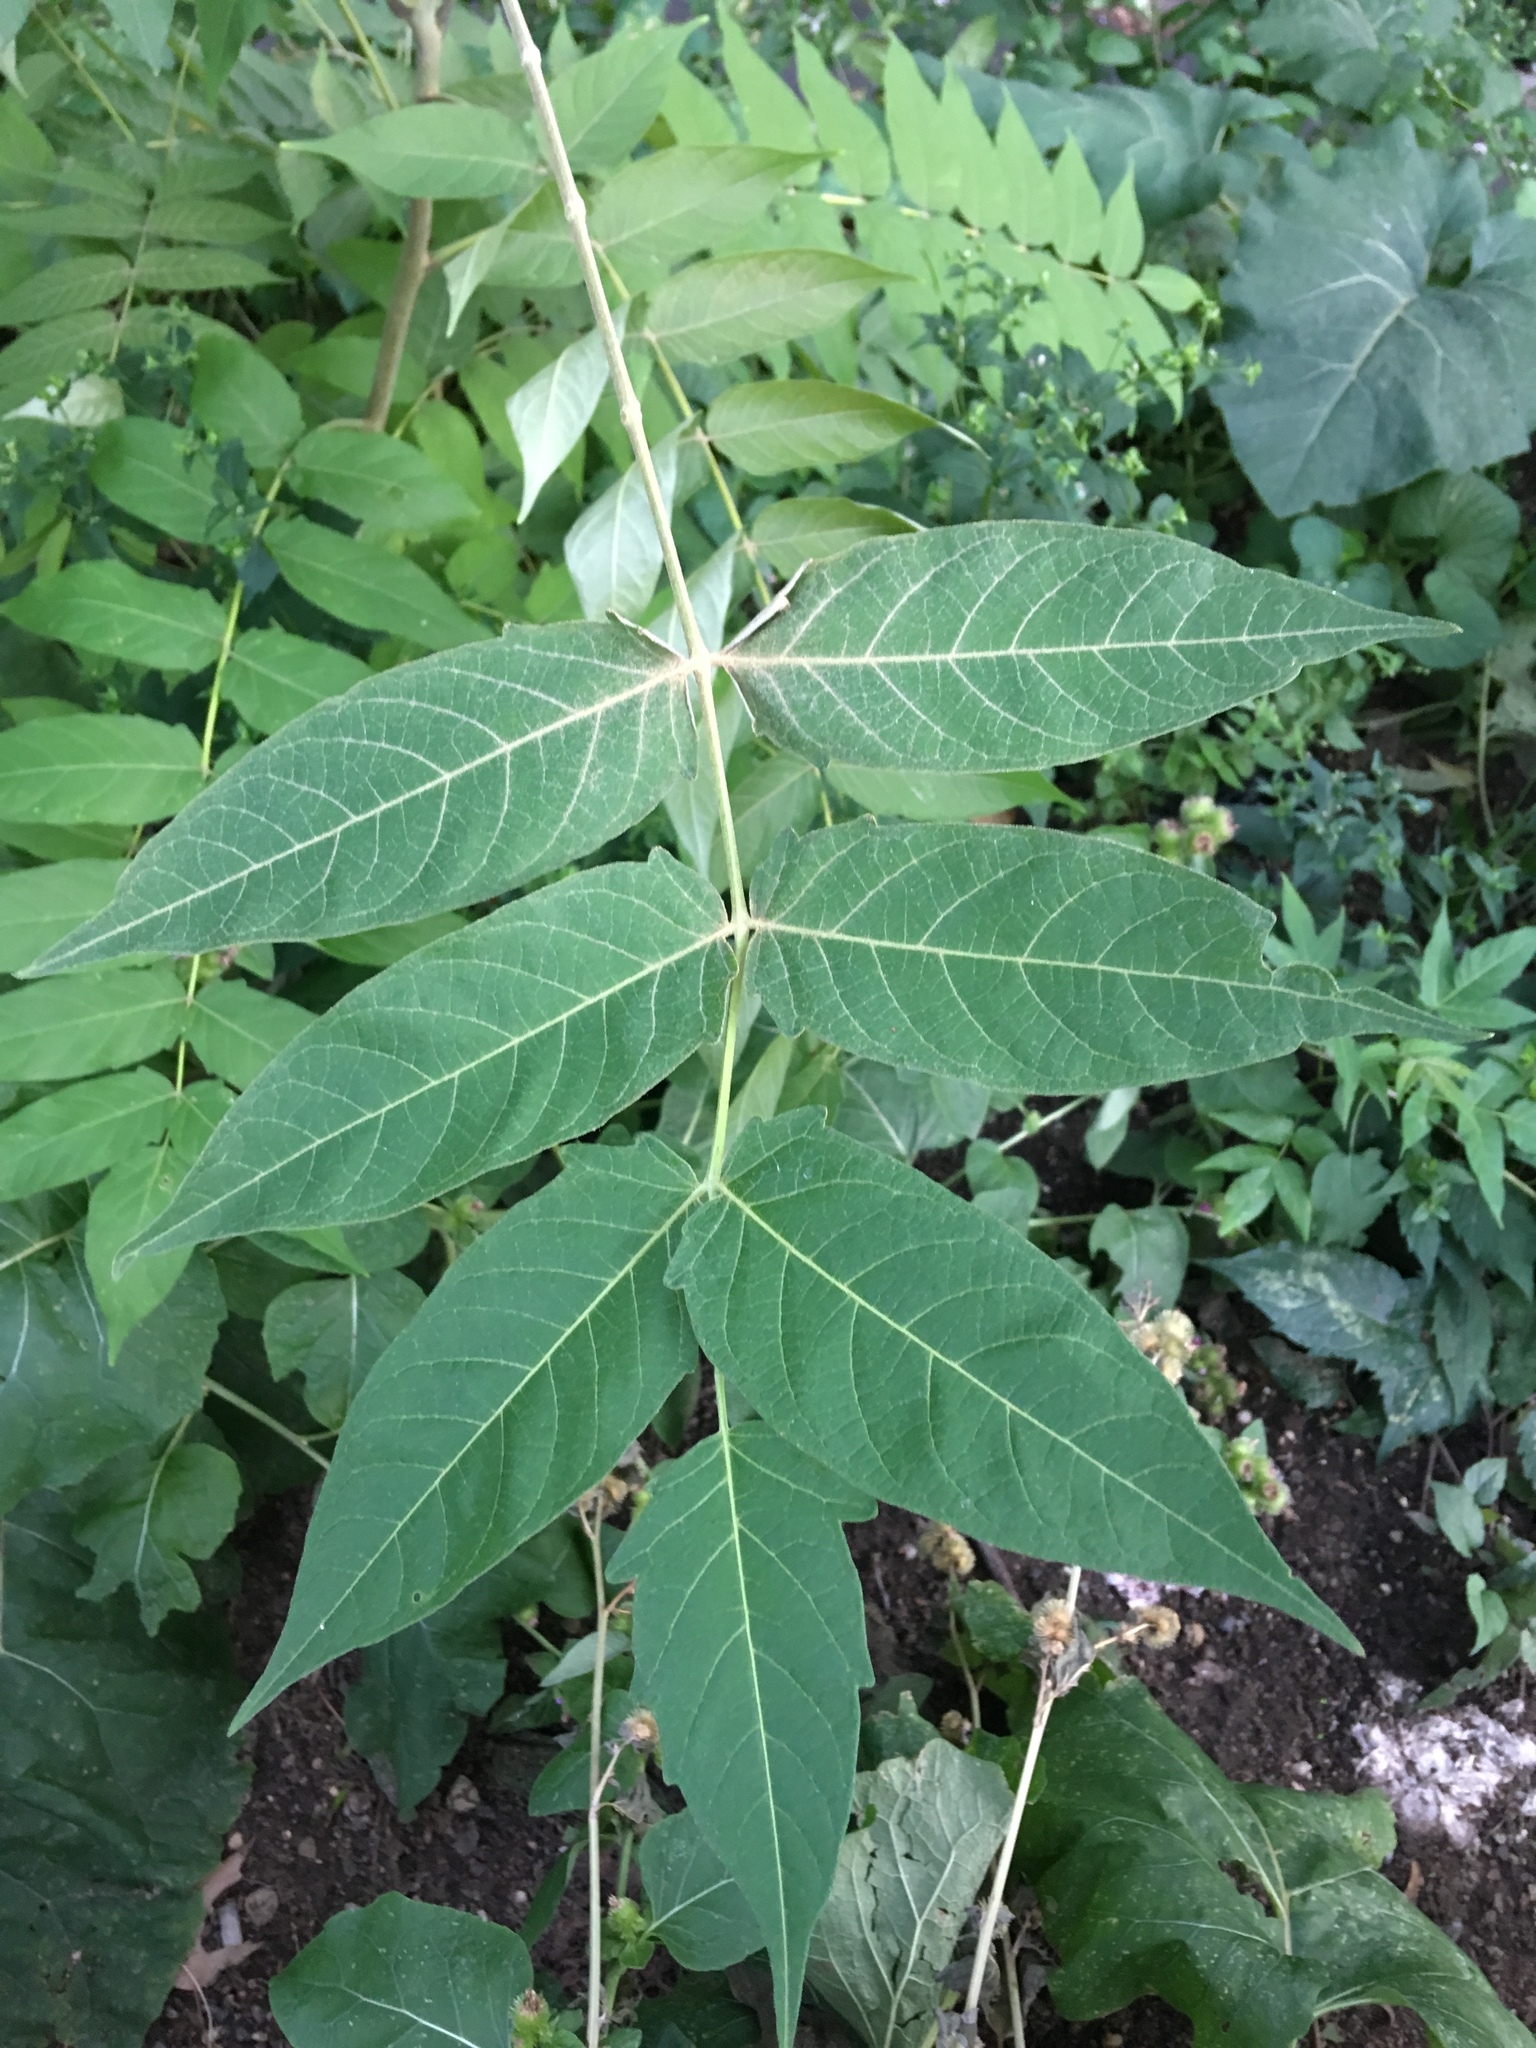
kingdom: Plantae
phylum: Tracheophyta
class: Magnoliopsida
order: Sapindales
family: Simaroubaceae
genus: Ailanthus
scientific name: Ailanthus altissima
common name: Tree-of-heaven
